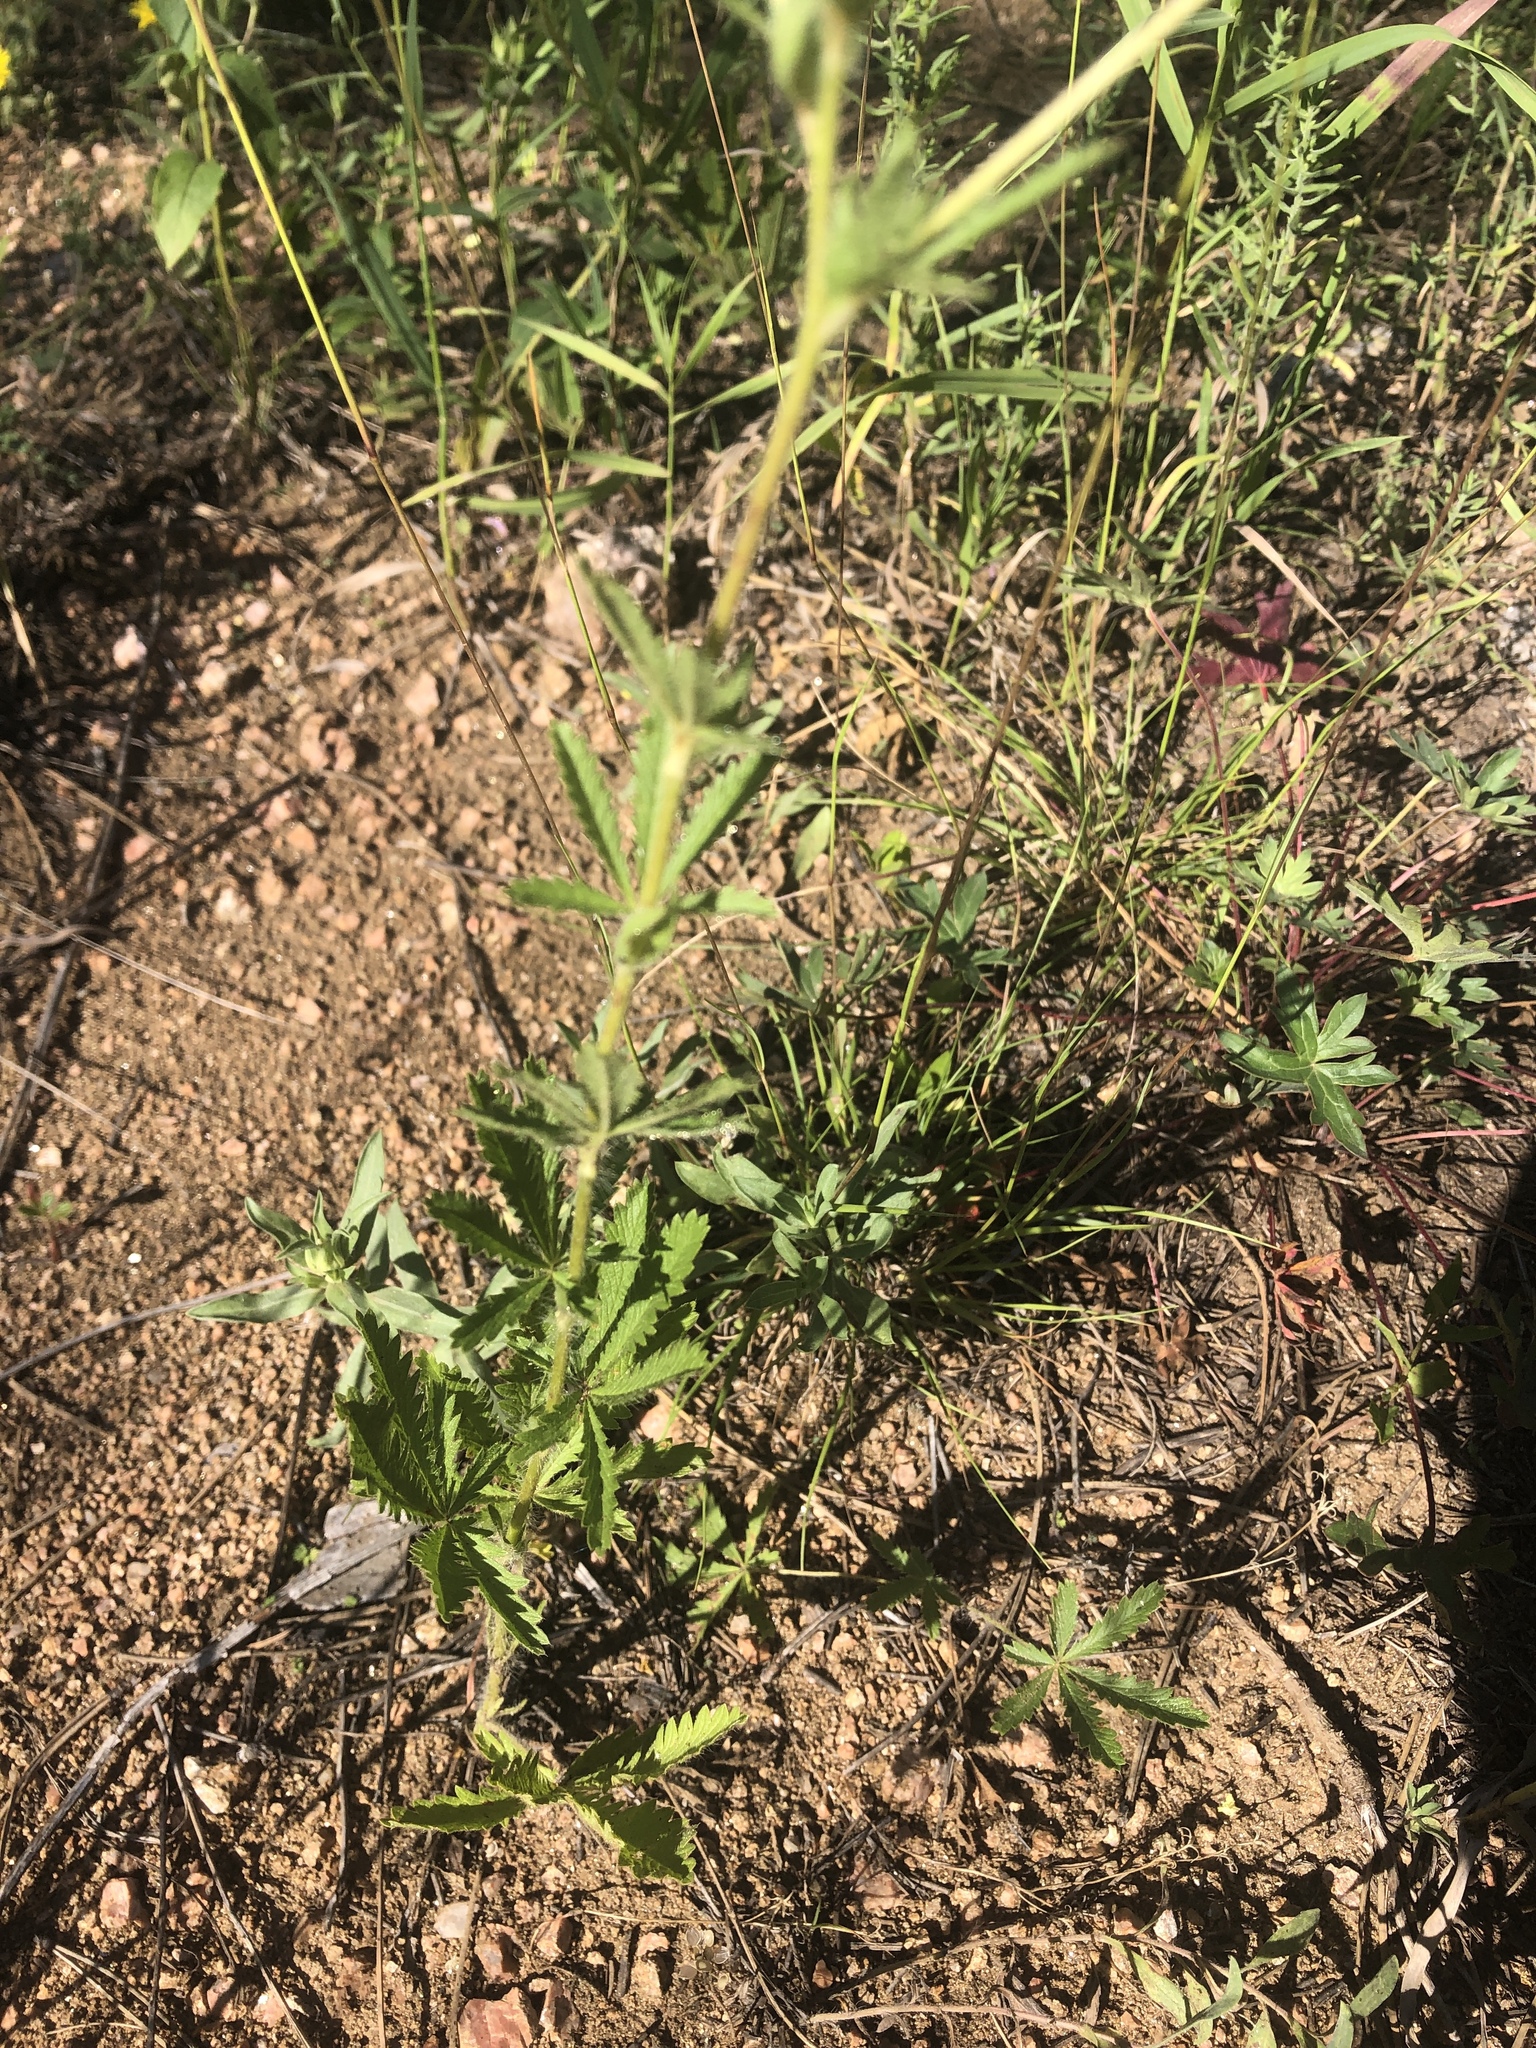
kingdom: Plantae
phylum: Tracheophyta
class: Magnoliopsida
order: Rosales
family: Rosaceae
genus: Potentilla
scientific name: Potentilla recta
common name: Sulphur cinquefoil
